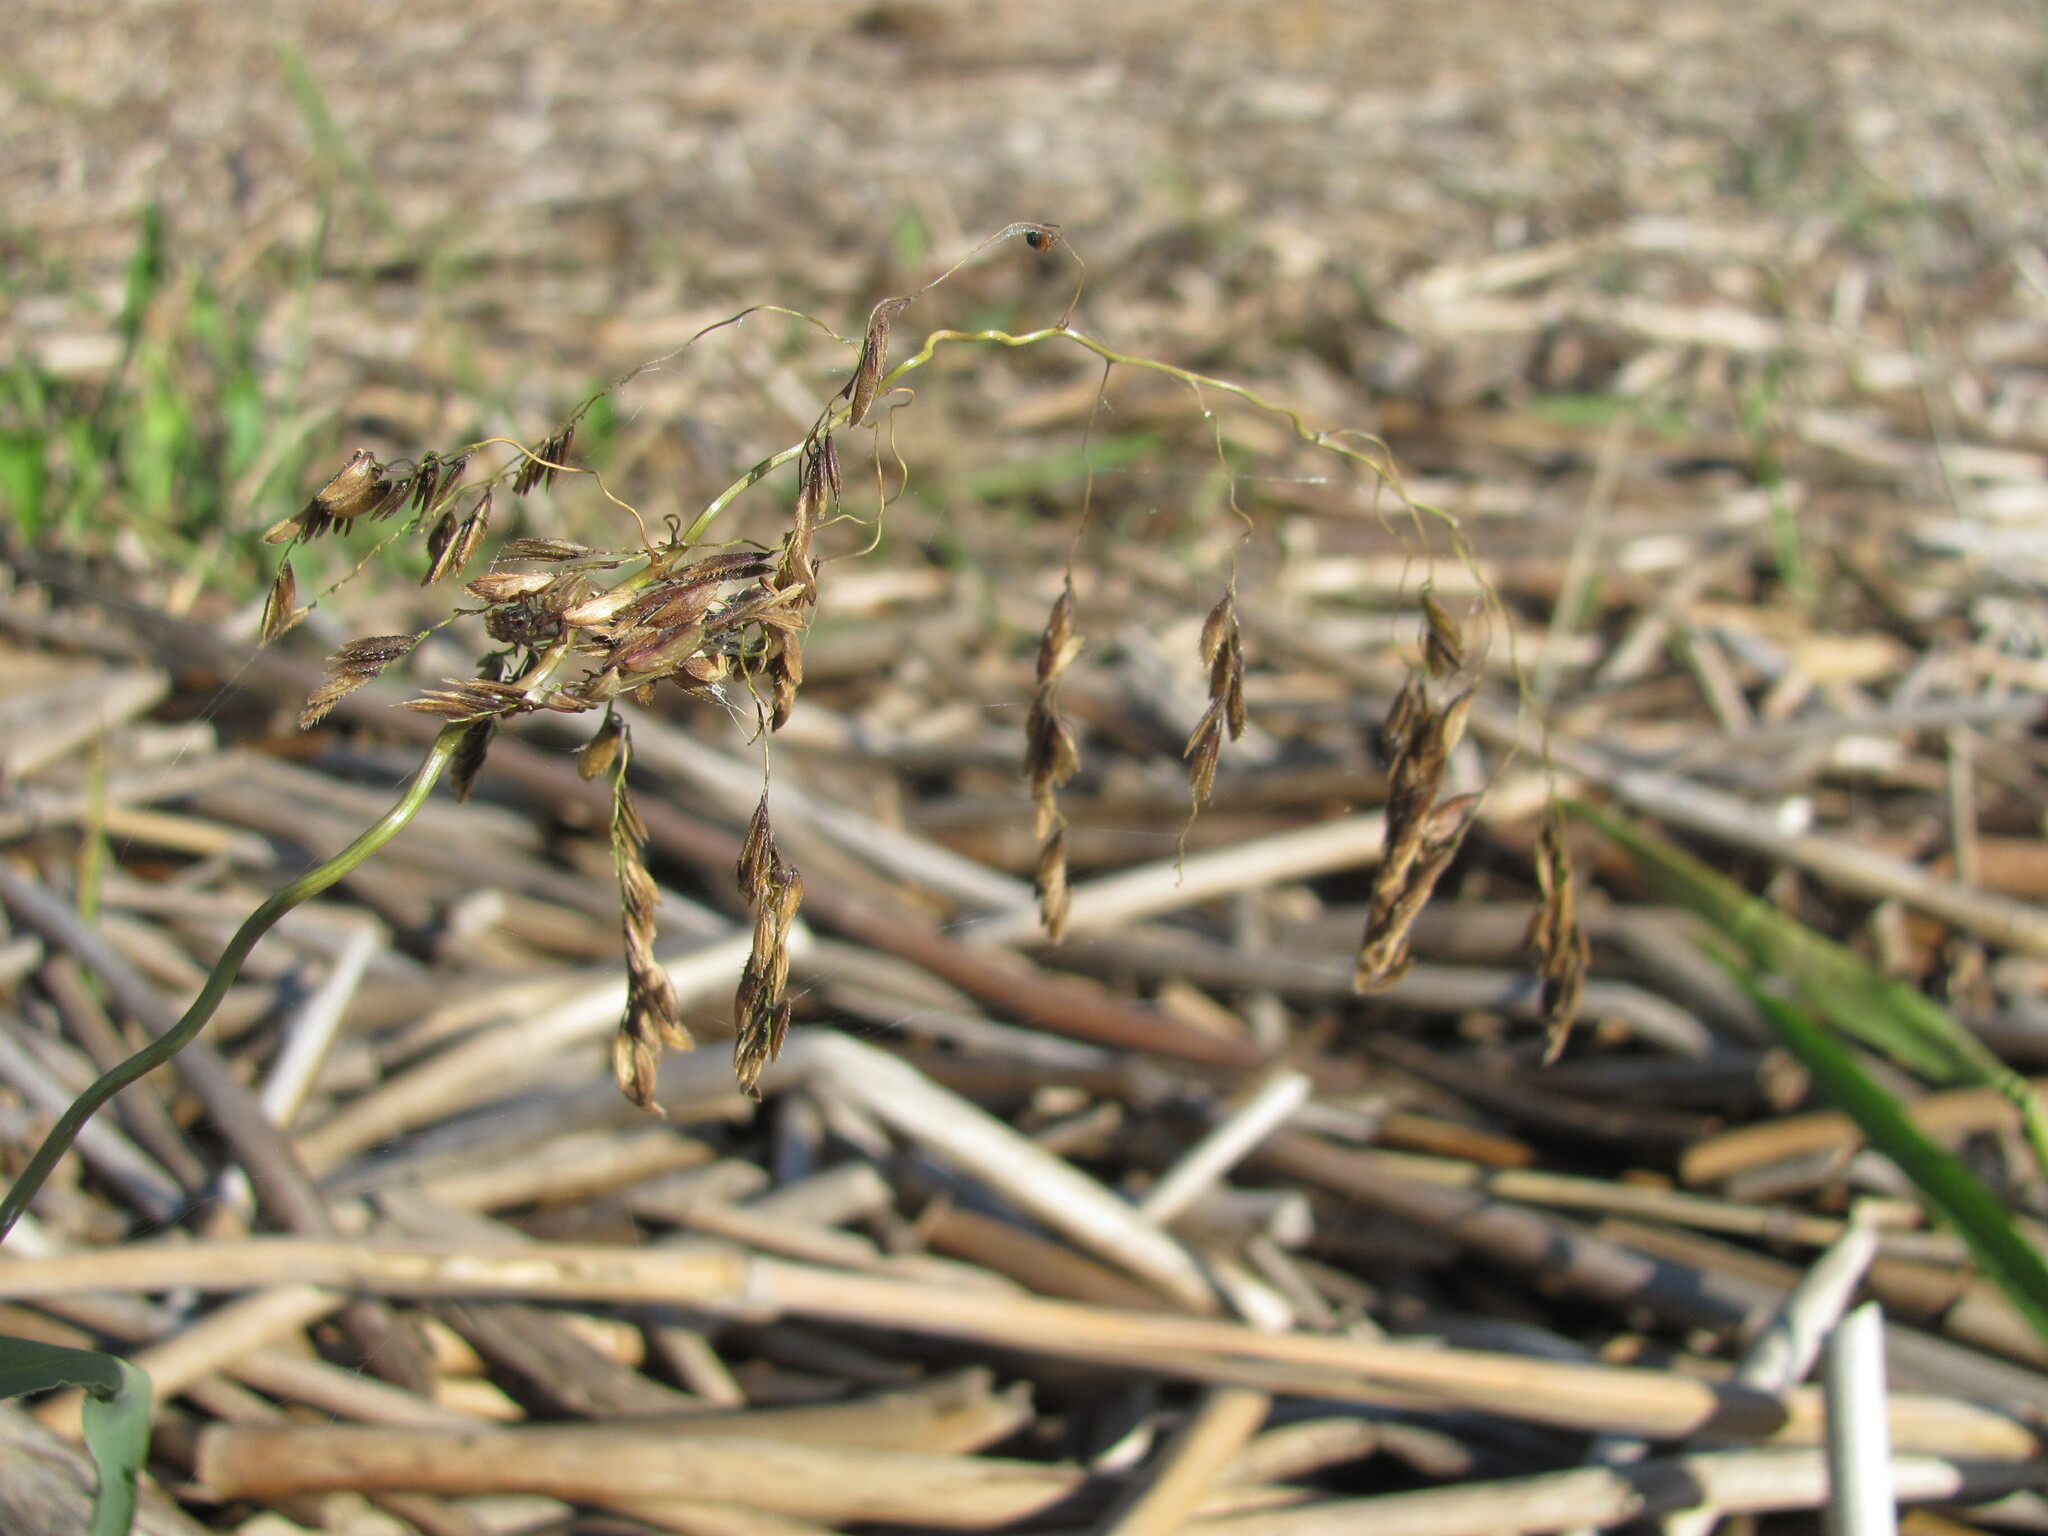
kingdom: Plantae
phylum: Tracheophyta
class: Liliopsida
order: Poales
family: Poaceae
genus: Leersia
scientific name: Leersia oryzoides
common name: Cut-grass
